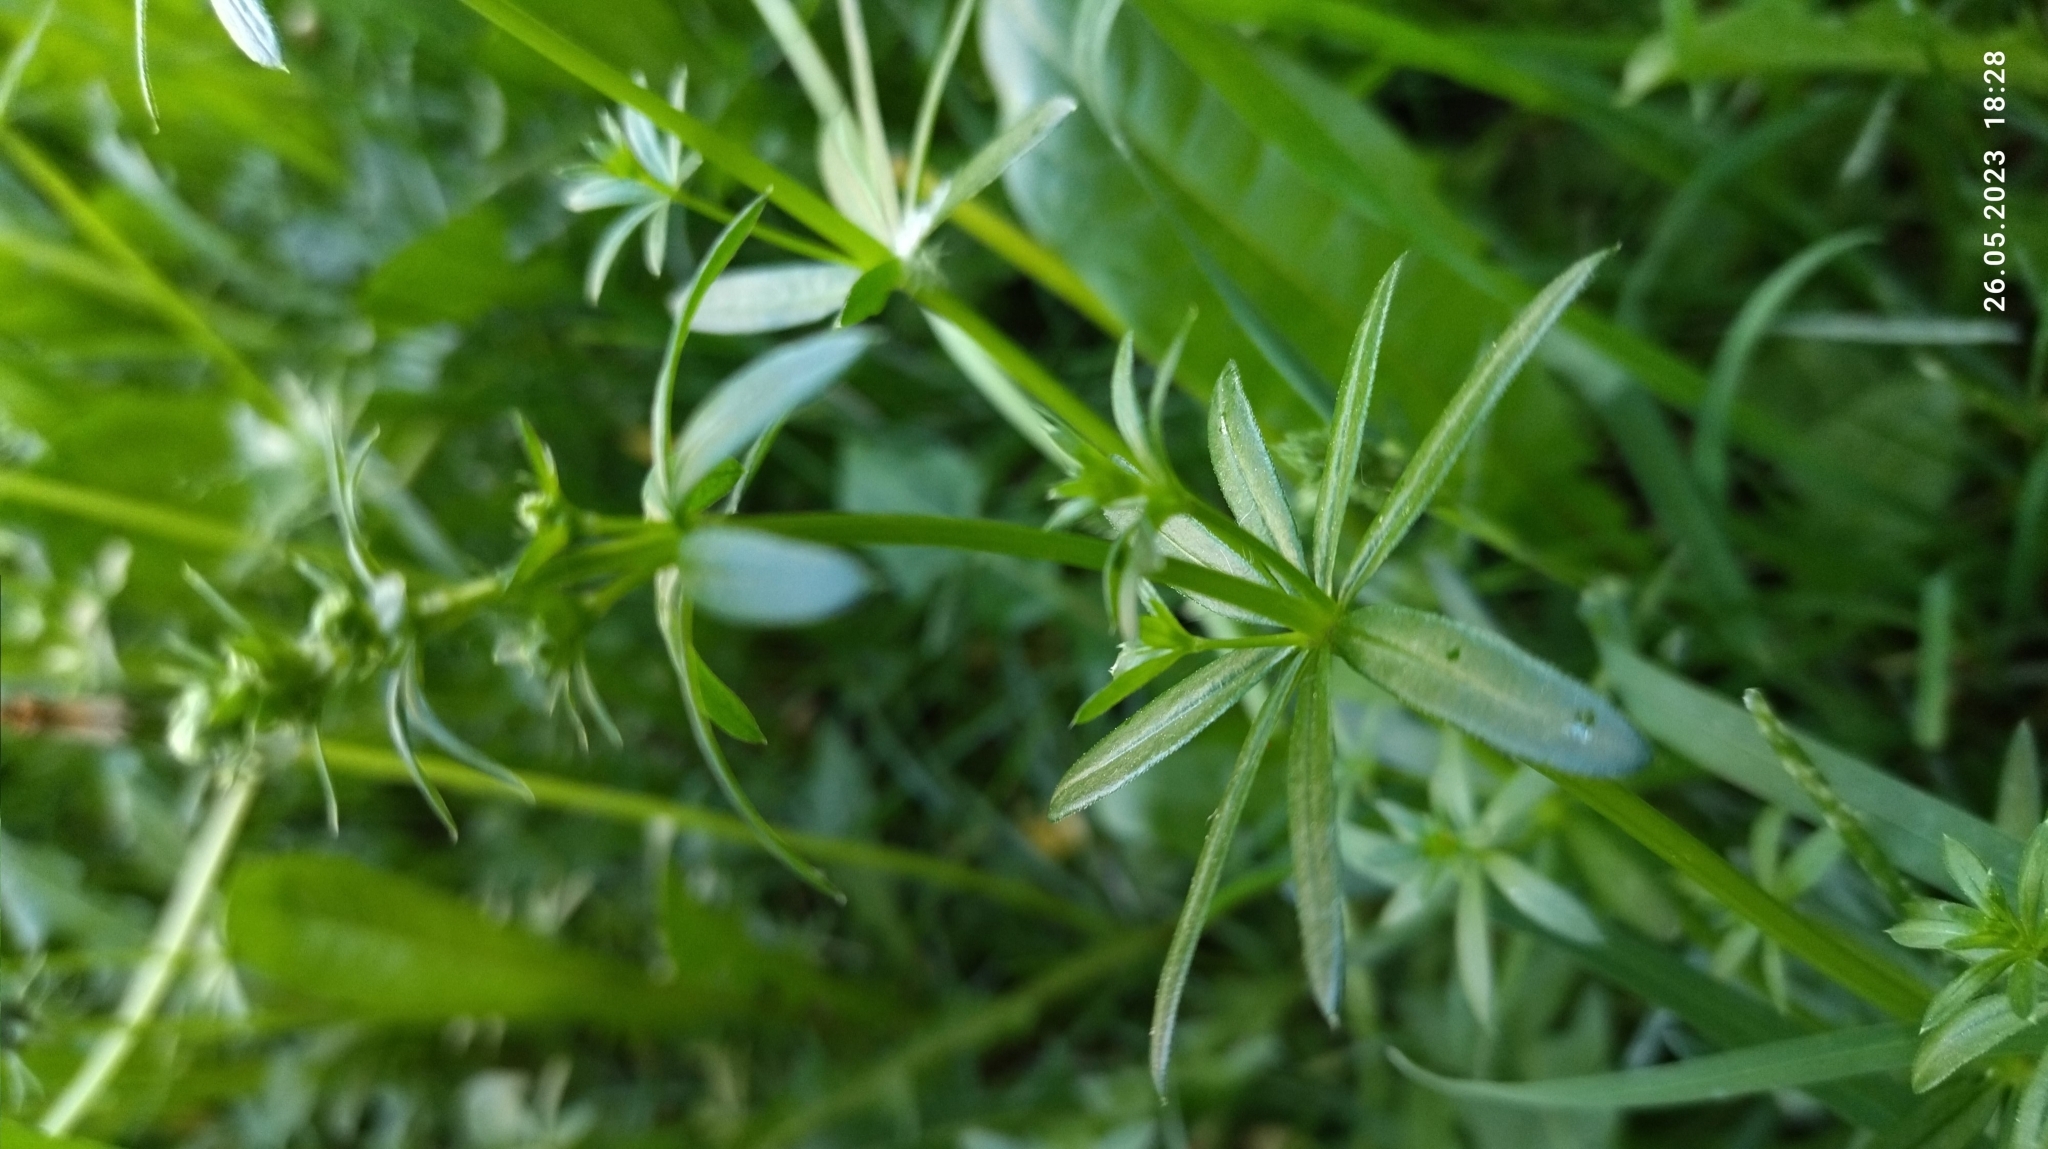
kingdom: Plantae
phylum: Tracheophyta
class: Magnoliopsida
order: Gentianales
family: Rubiaceae
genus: Galium
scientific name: Galium mollugo
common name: Hedge bedstraw
